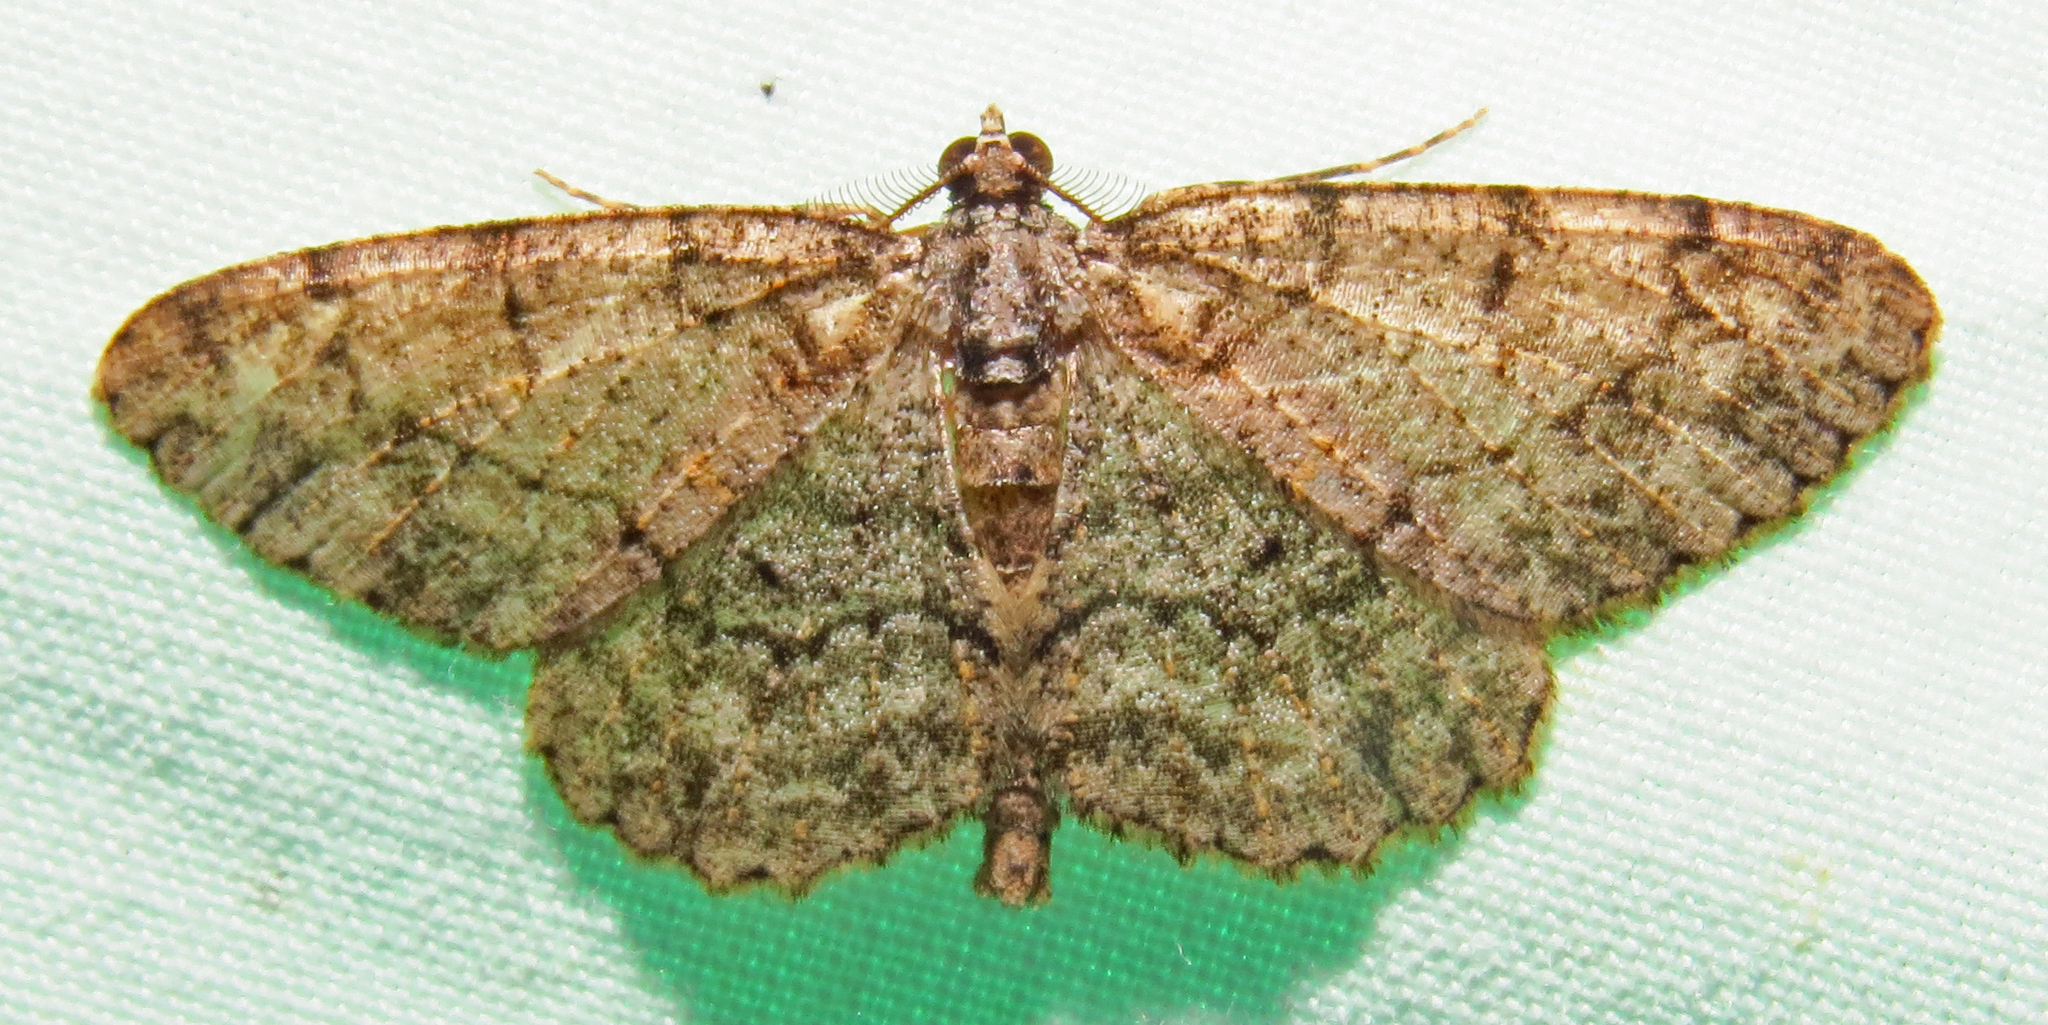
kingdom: Animalia
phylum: Arthropoda
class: Insecta
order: Lepidoptera
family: Geometridae
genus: Protoboarmia
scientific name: Protoboarmia porcelaria
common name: Porcelain gray
